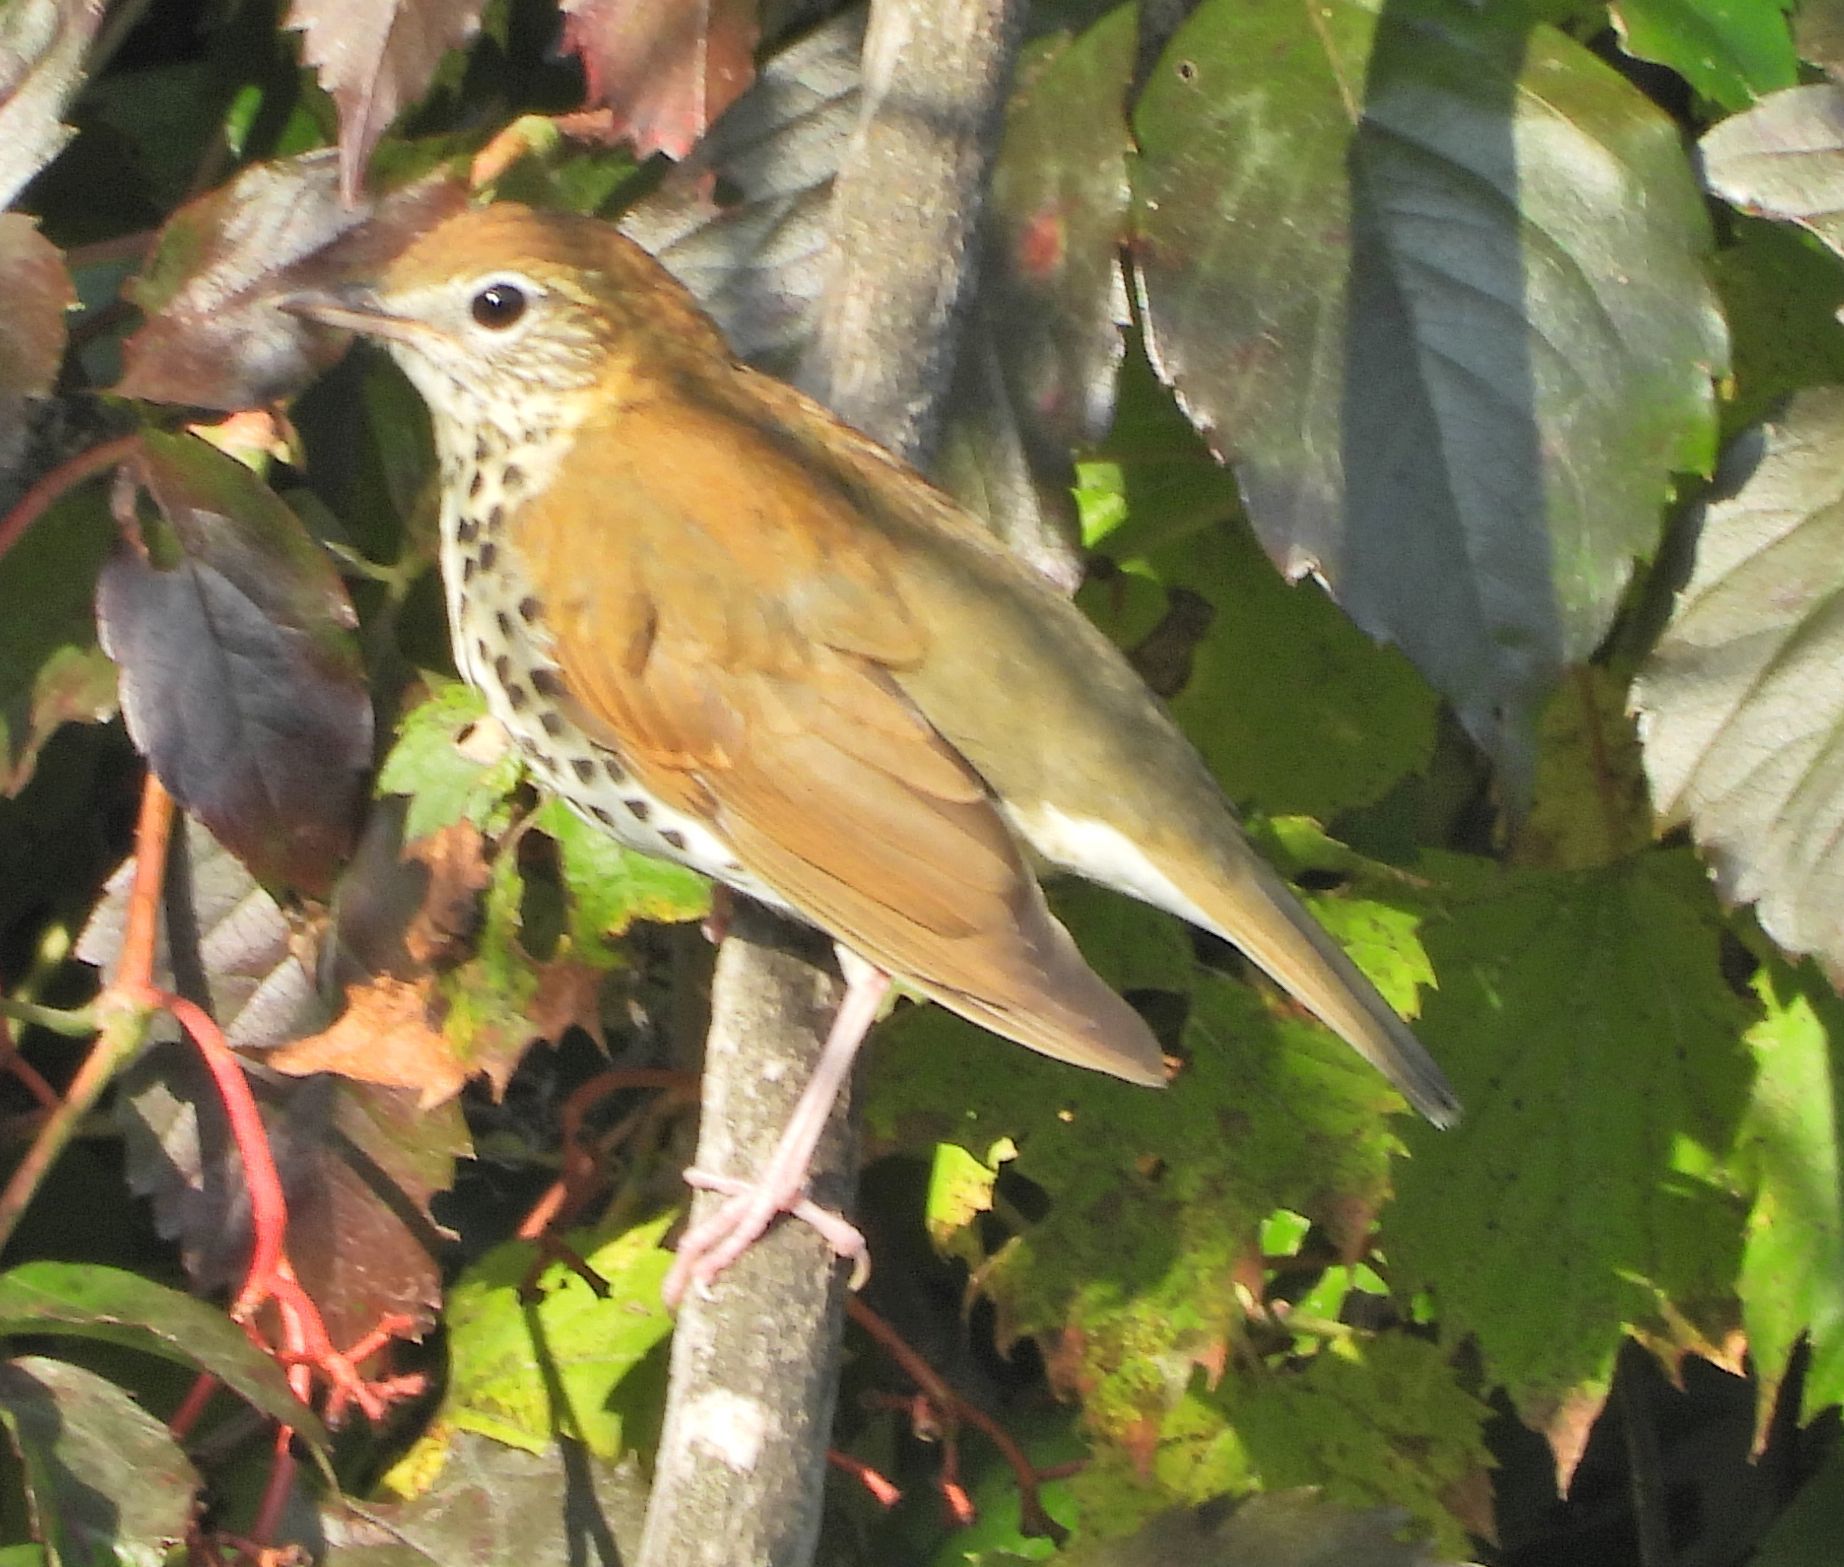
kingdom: Animalia
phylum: Chordata
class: Aves
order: Passeriformes
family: Turdidae
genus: Hylocichla
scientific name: Hylocichla mustelina
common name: Wood thrush
